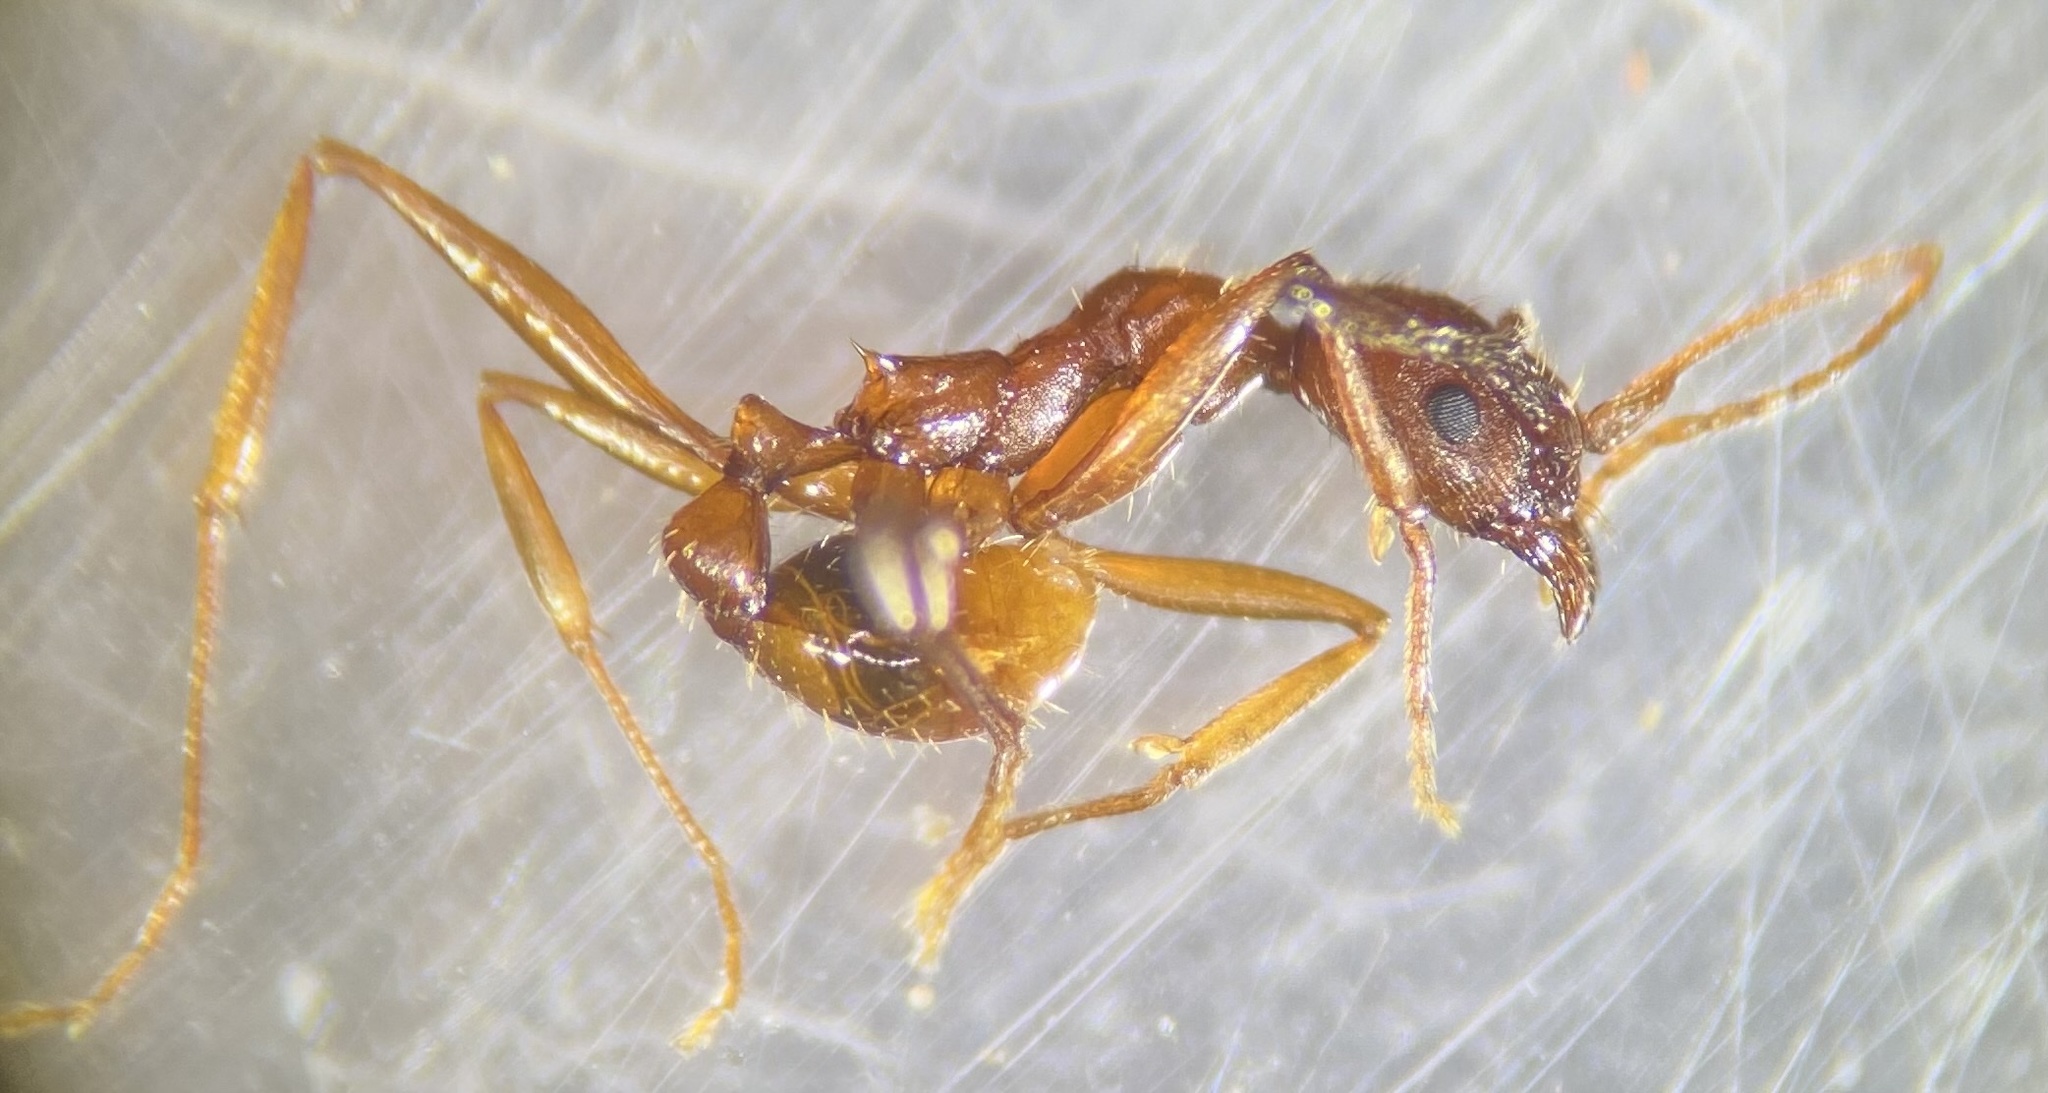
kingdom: Animalia
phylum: Arthropoda
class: Insecta
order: Hymenoptera
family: Formicidae
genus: Aphaenogaster
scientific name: Aphaenogaster treatae
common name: Treat's collared ant
